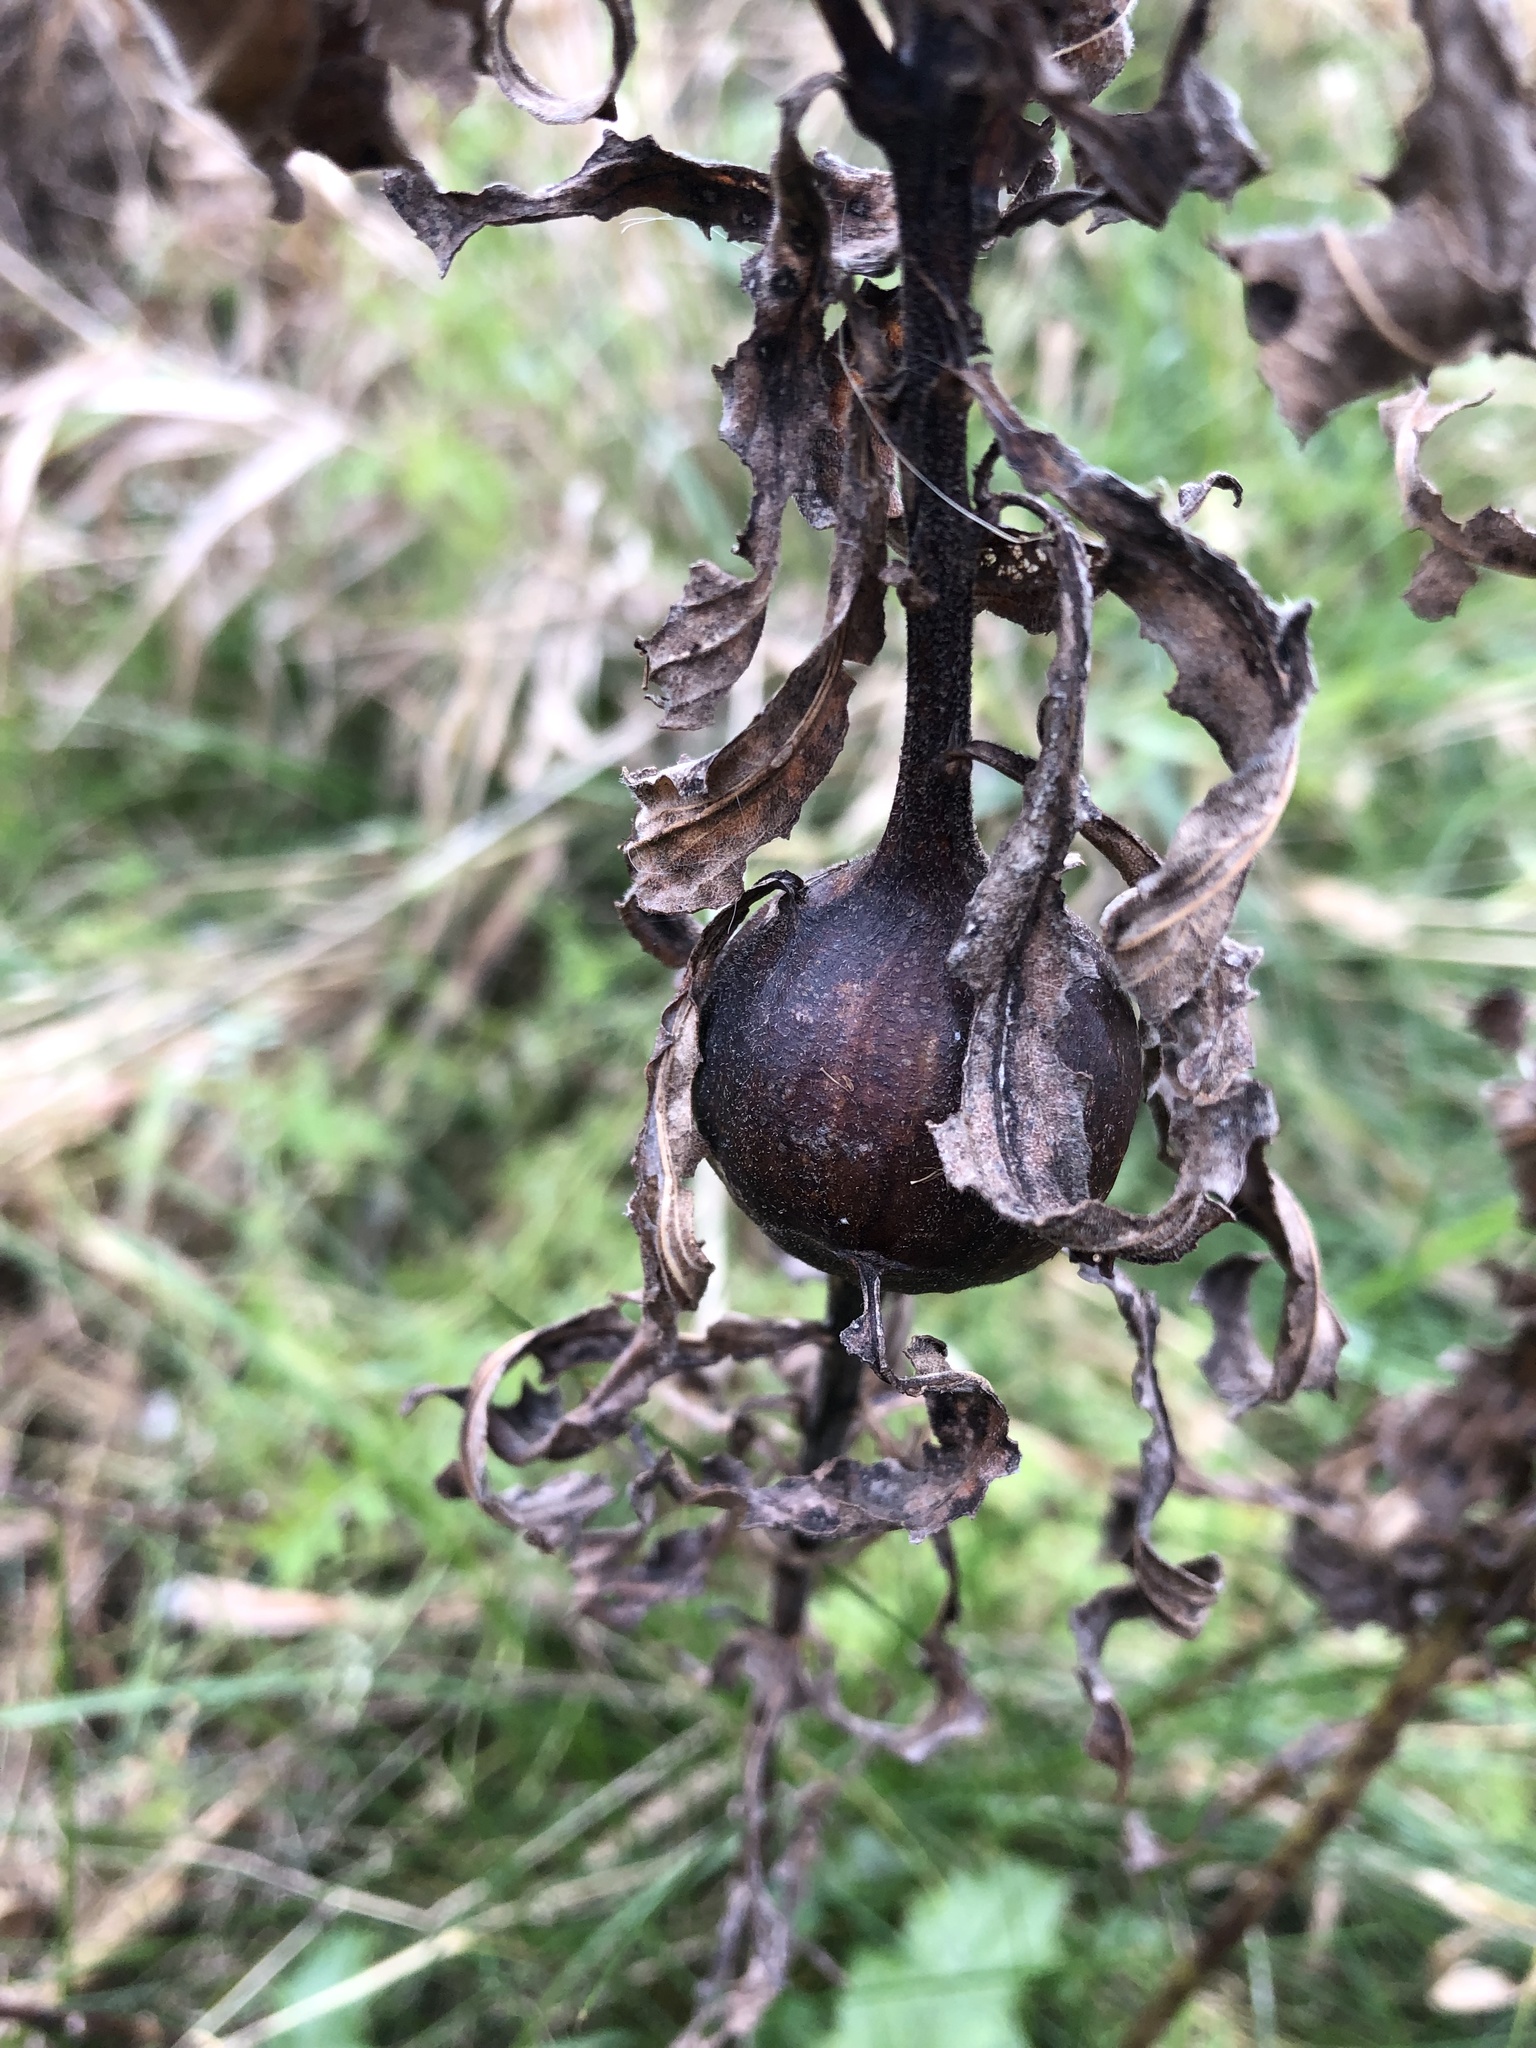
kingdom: Animalia
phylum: Arthropoda
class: Insecta
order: Diptera
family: Tephritidae
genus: Eurosta
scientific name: Eurosta solidaginis
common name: Goldenrod gall fly
